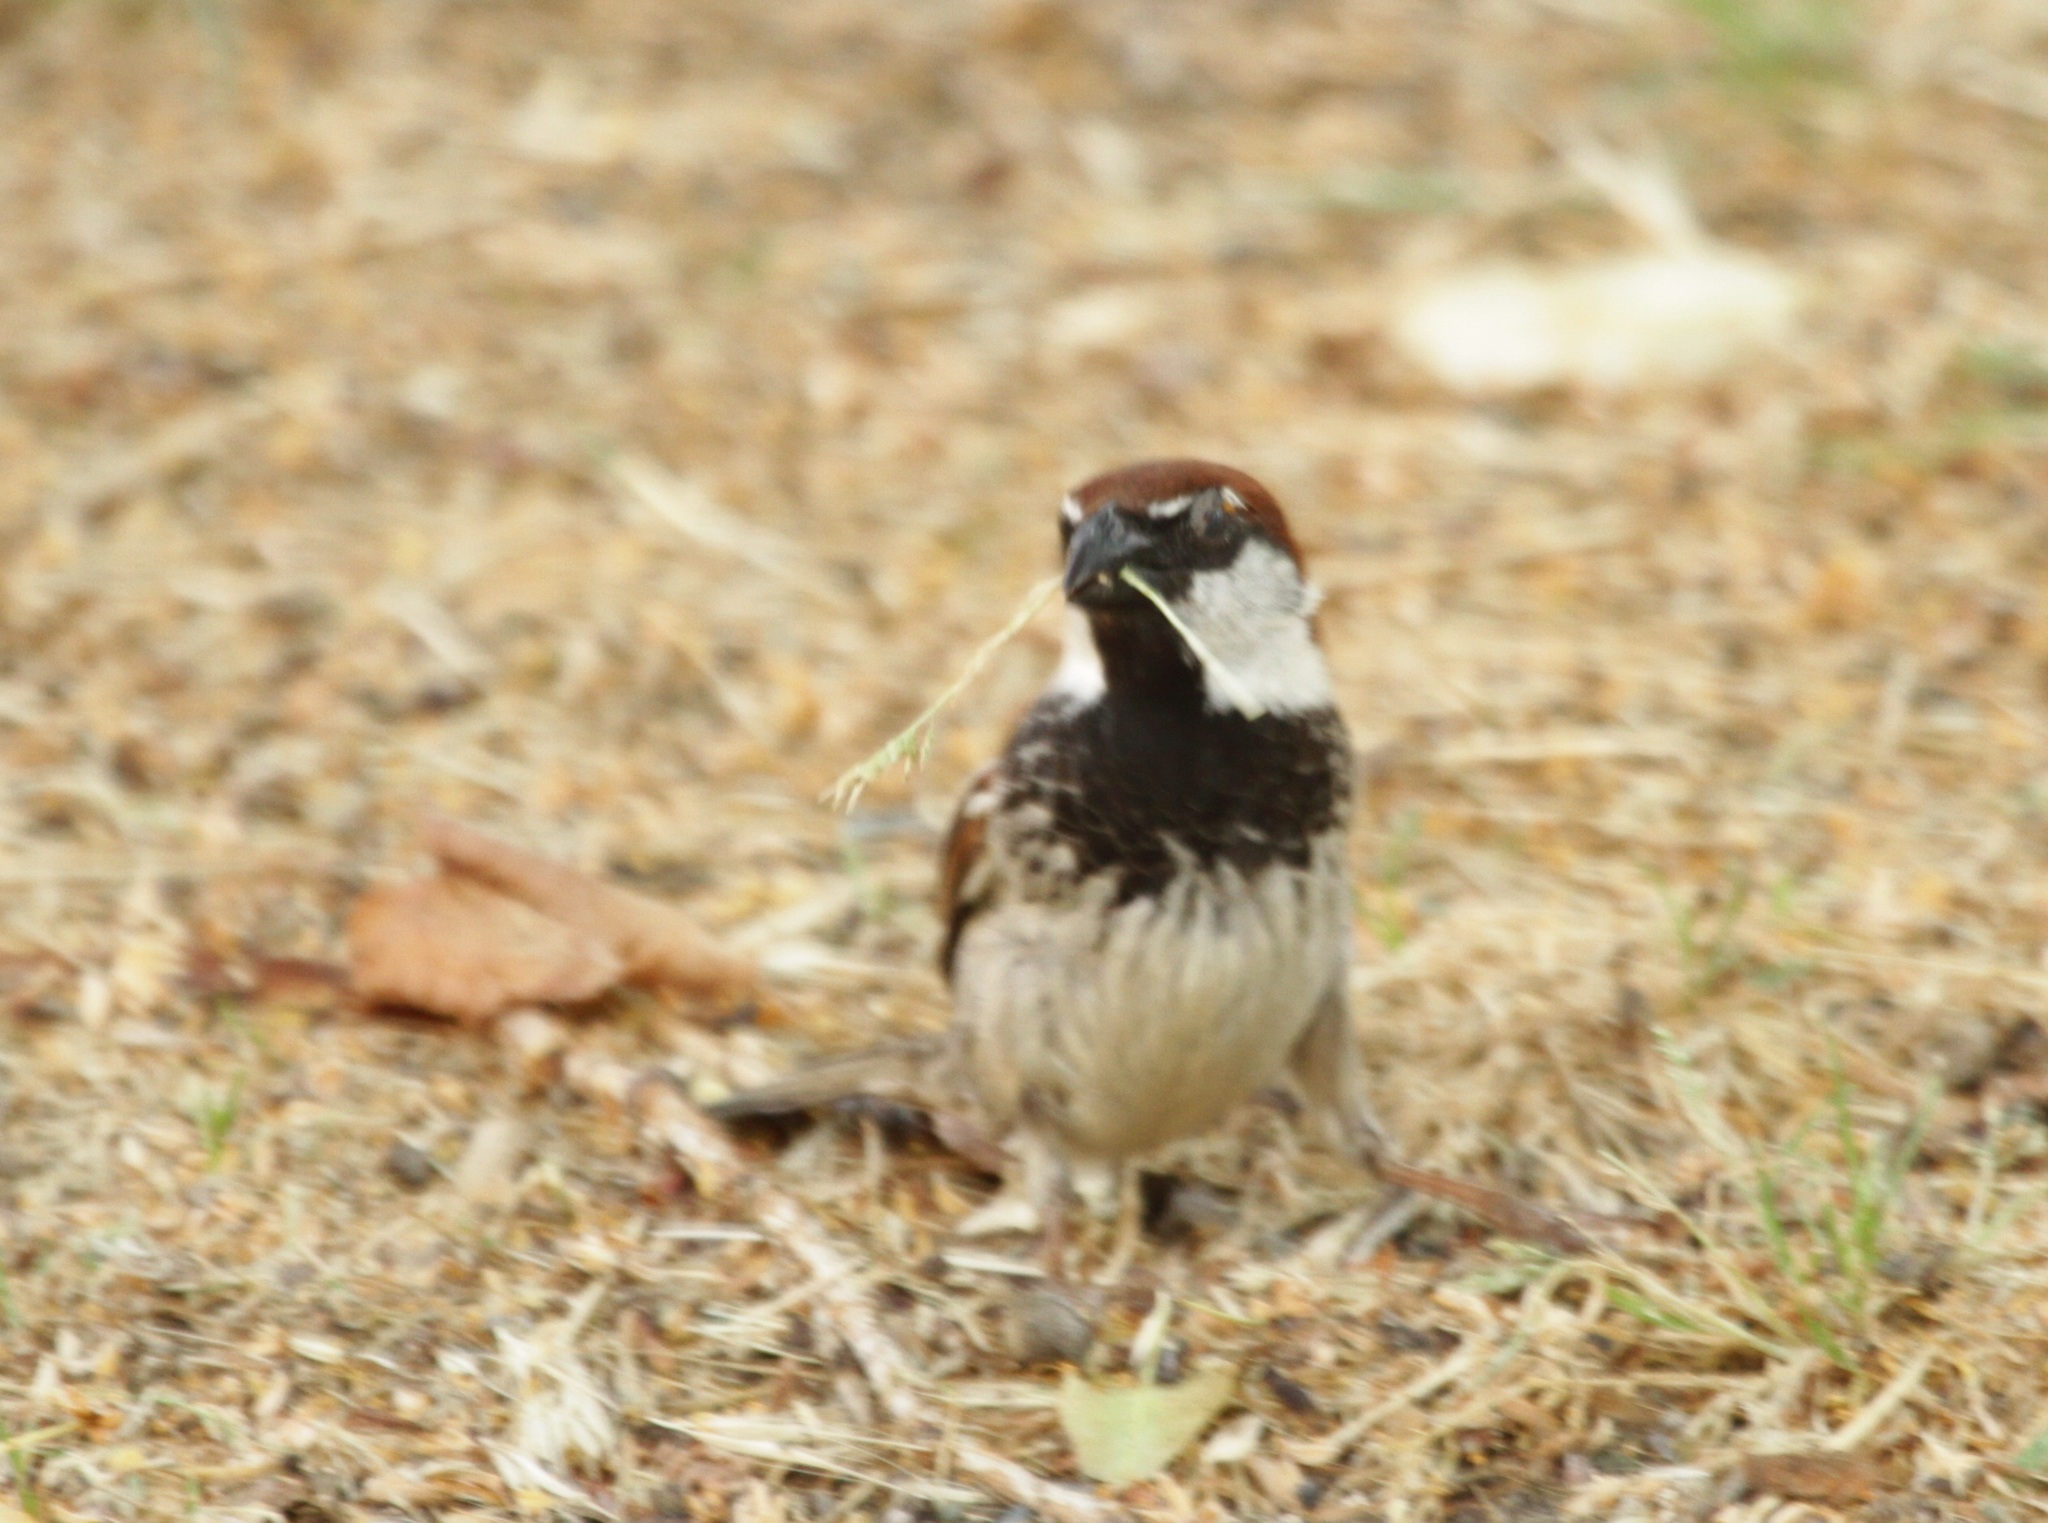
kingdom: Animalia
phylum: Chordata
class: Aves
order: Passeriformes
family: Passeridae
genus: Passer
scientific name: Passer italiae
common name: Italian sparrow
